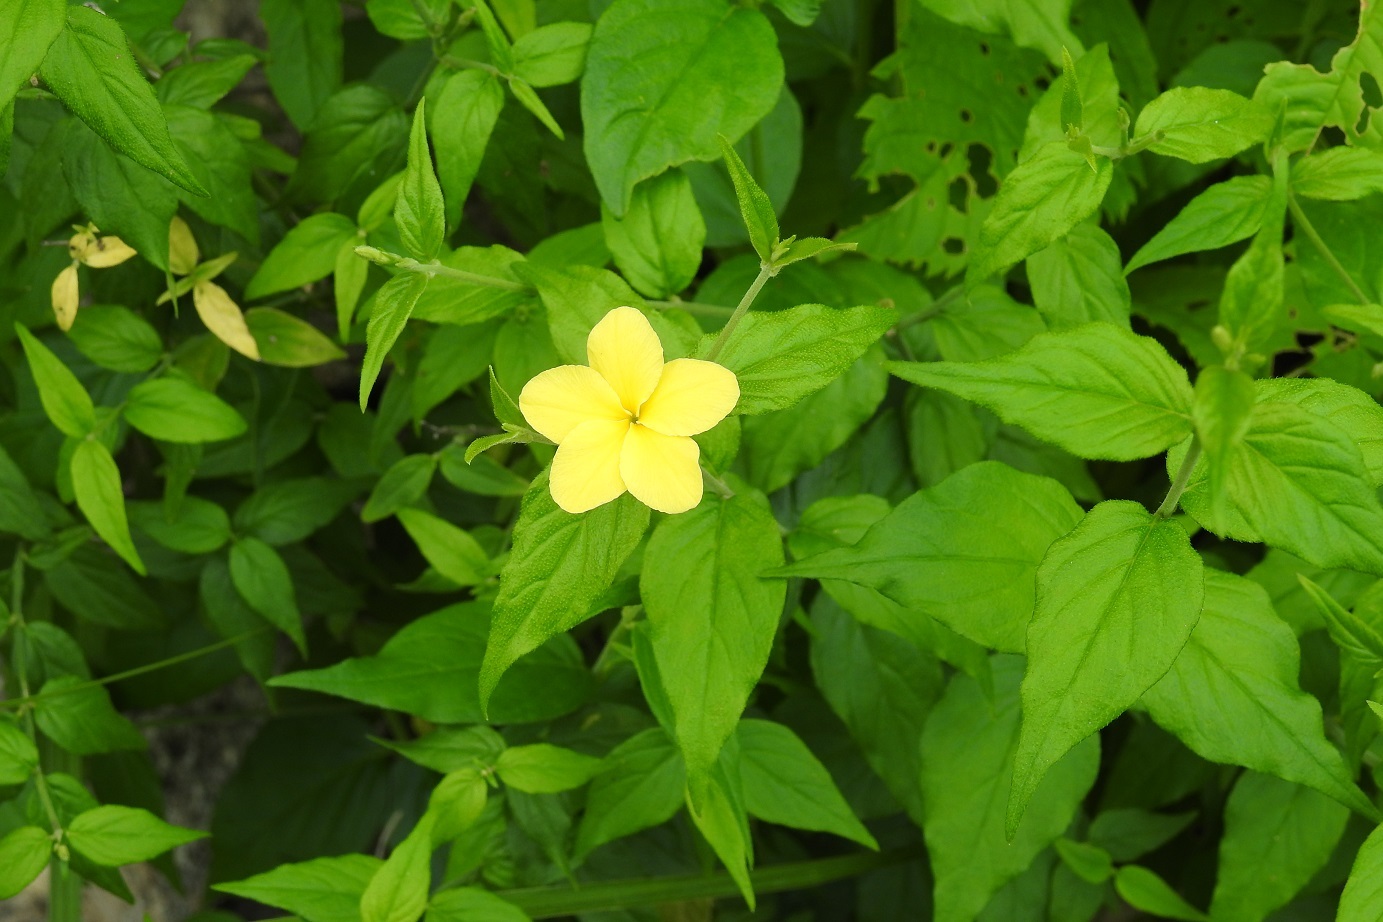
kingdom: Plantae
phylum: Tracheophyta
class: Magnoliopsida
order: Gentianales
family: Apocynaceae
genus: Haplophyton
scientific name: Haplophyton cimicidum
